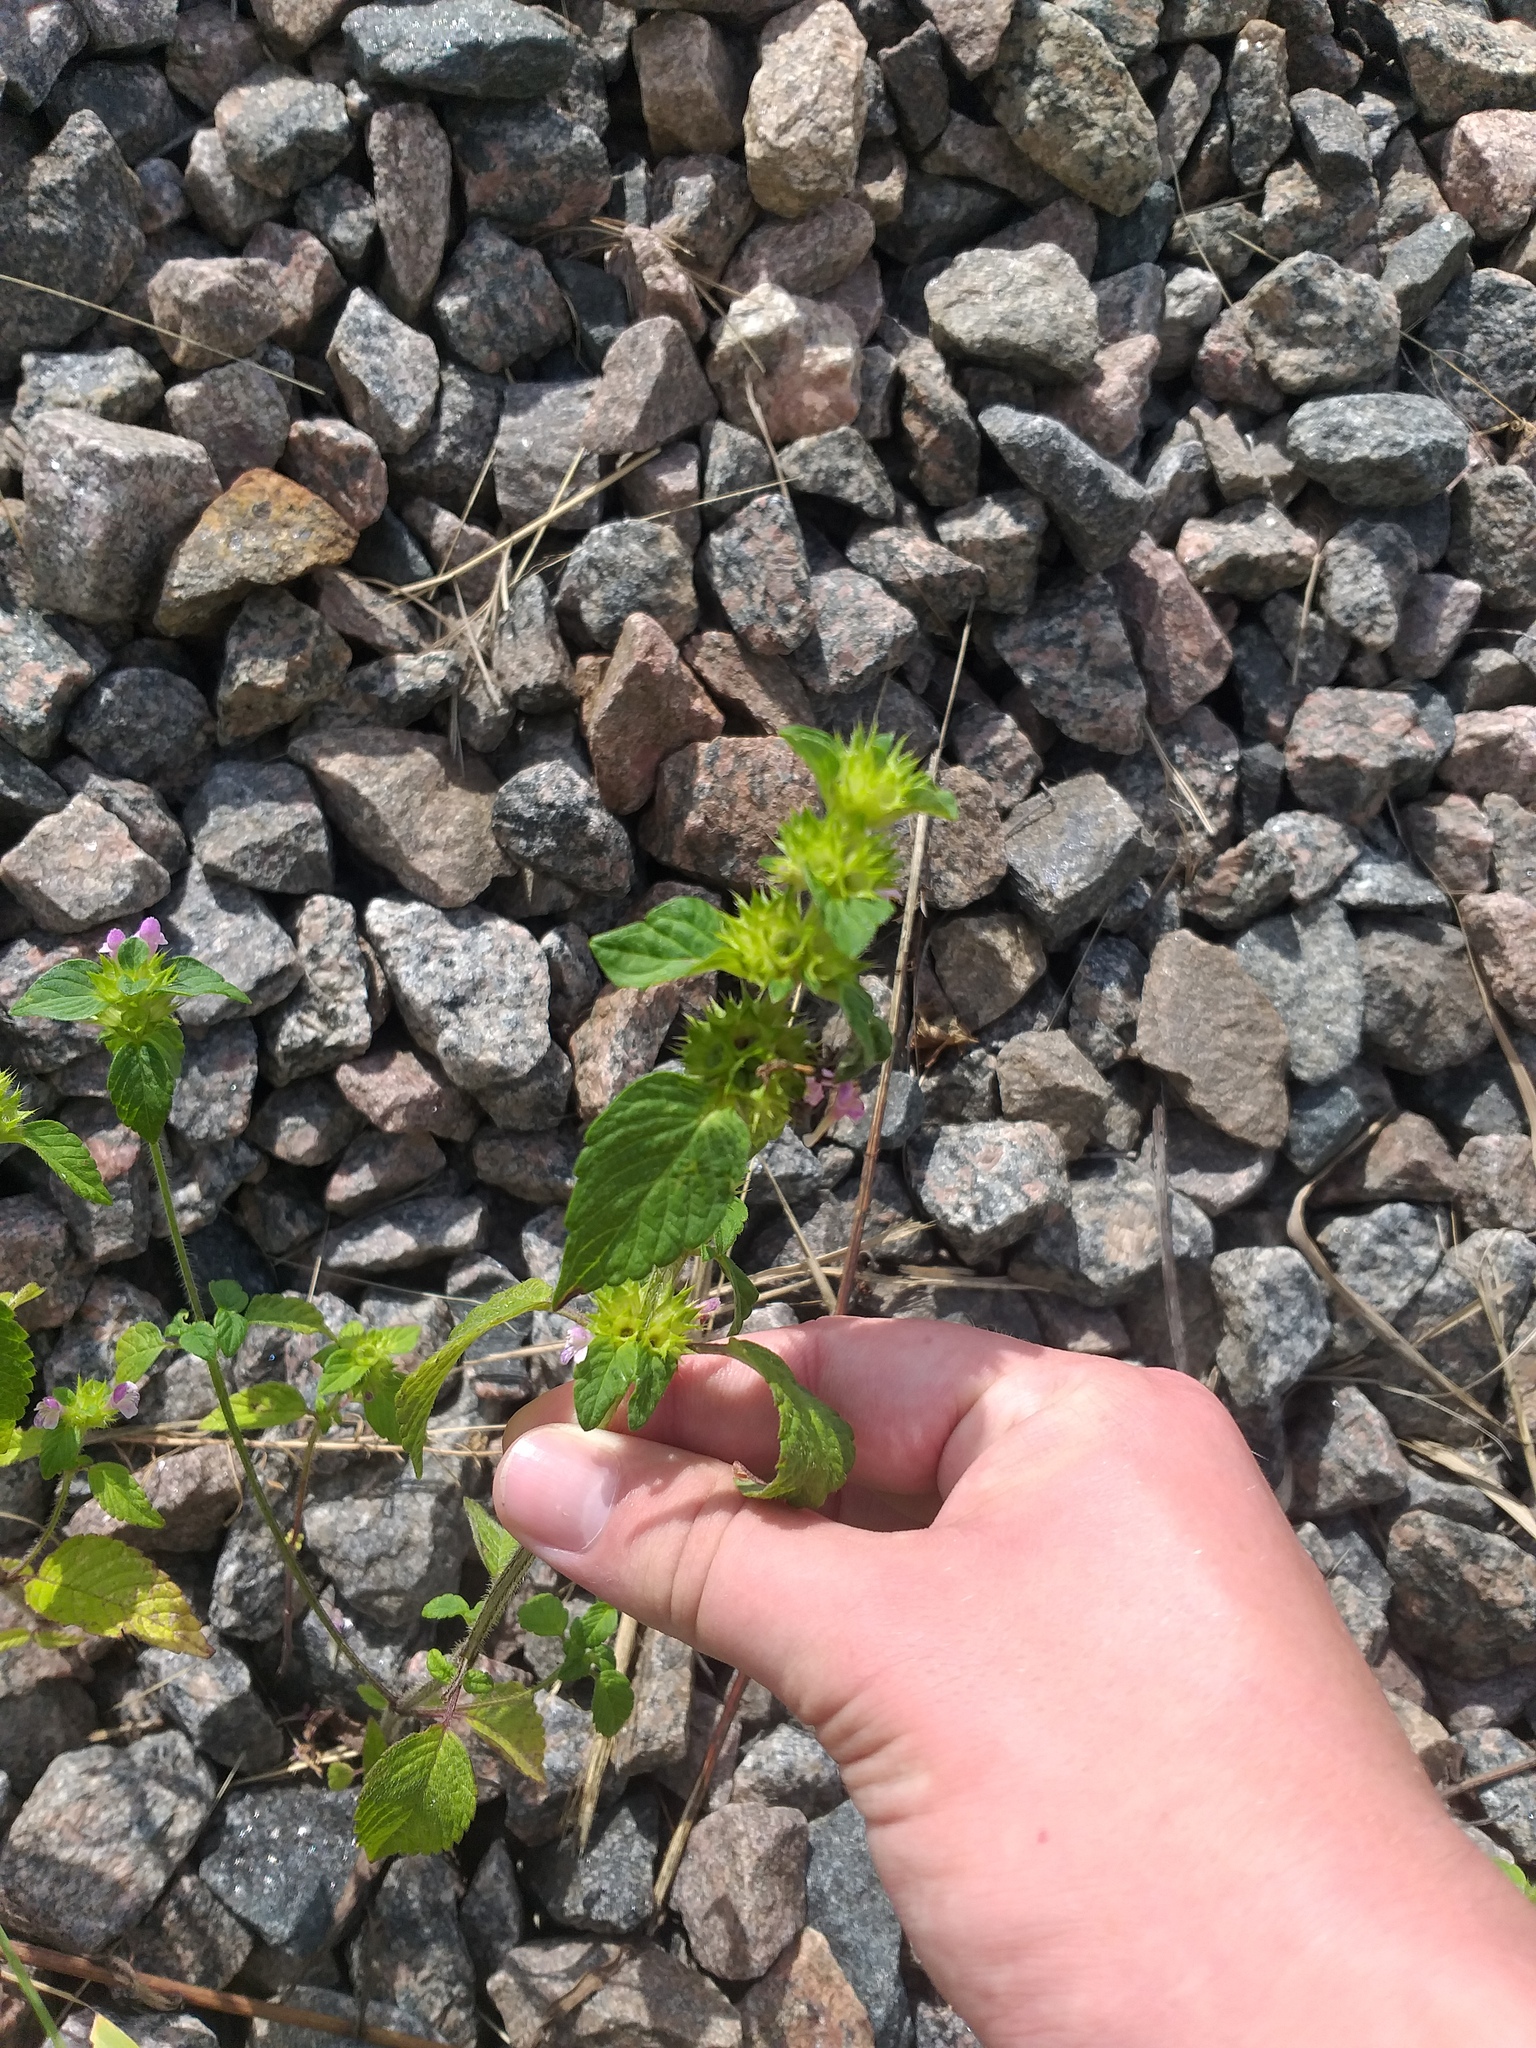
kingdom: Plantae
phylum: Tracheophyta
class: Magnoliopsida
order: Lamiales
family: Lamiaceae
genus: Galeopsis
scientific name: Galeopsis bifida
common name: Bifid hemp-nettle
